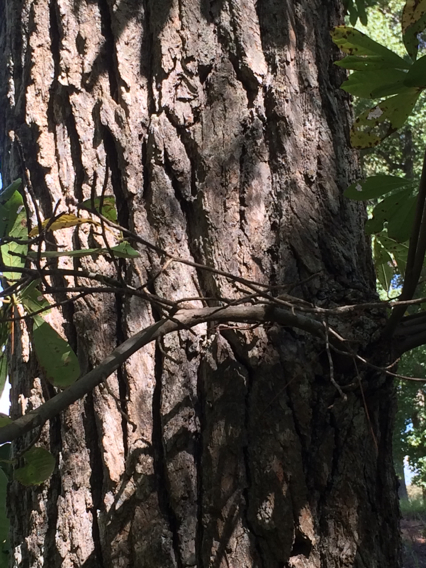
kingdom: Plantae
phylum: Tracheophyta
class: Magnoliopsida
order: Cornales
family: Nyssaceae
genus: Nyssa
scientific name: Nyssa sylvatica
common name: Black tupelo
